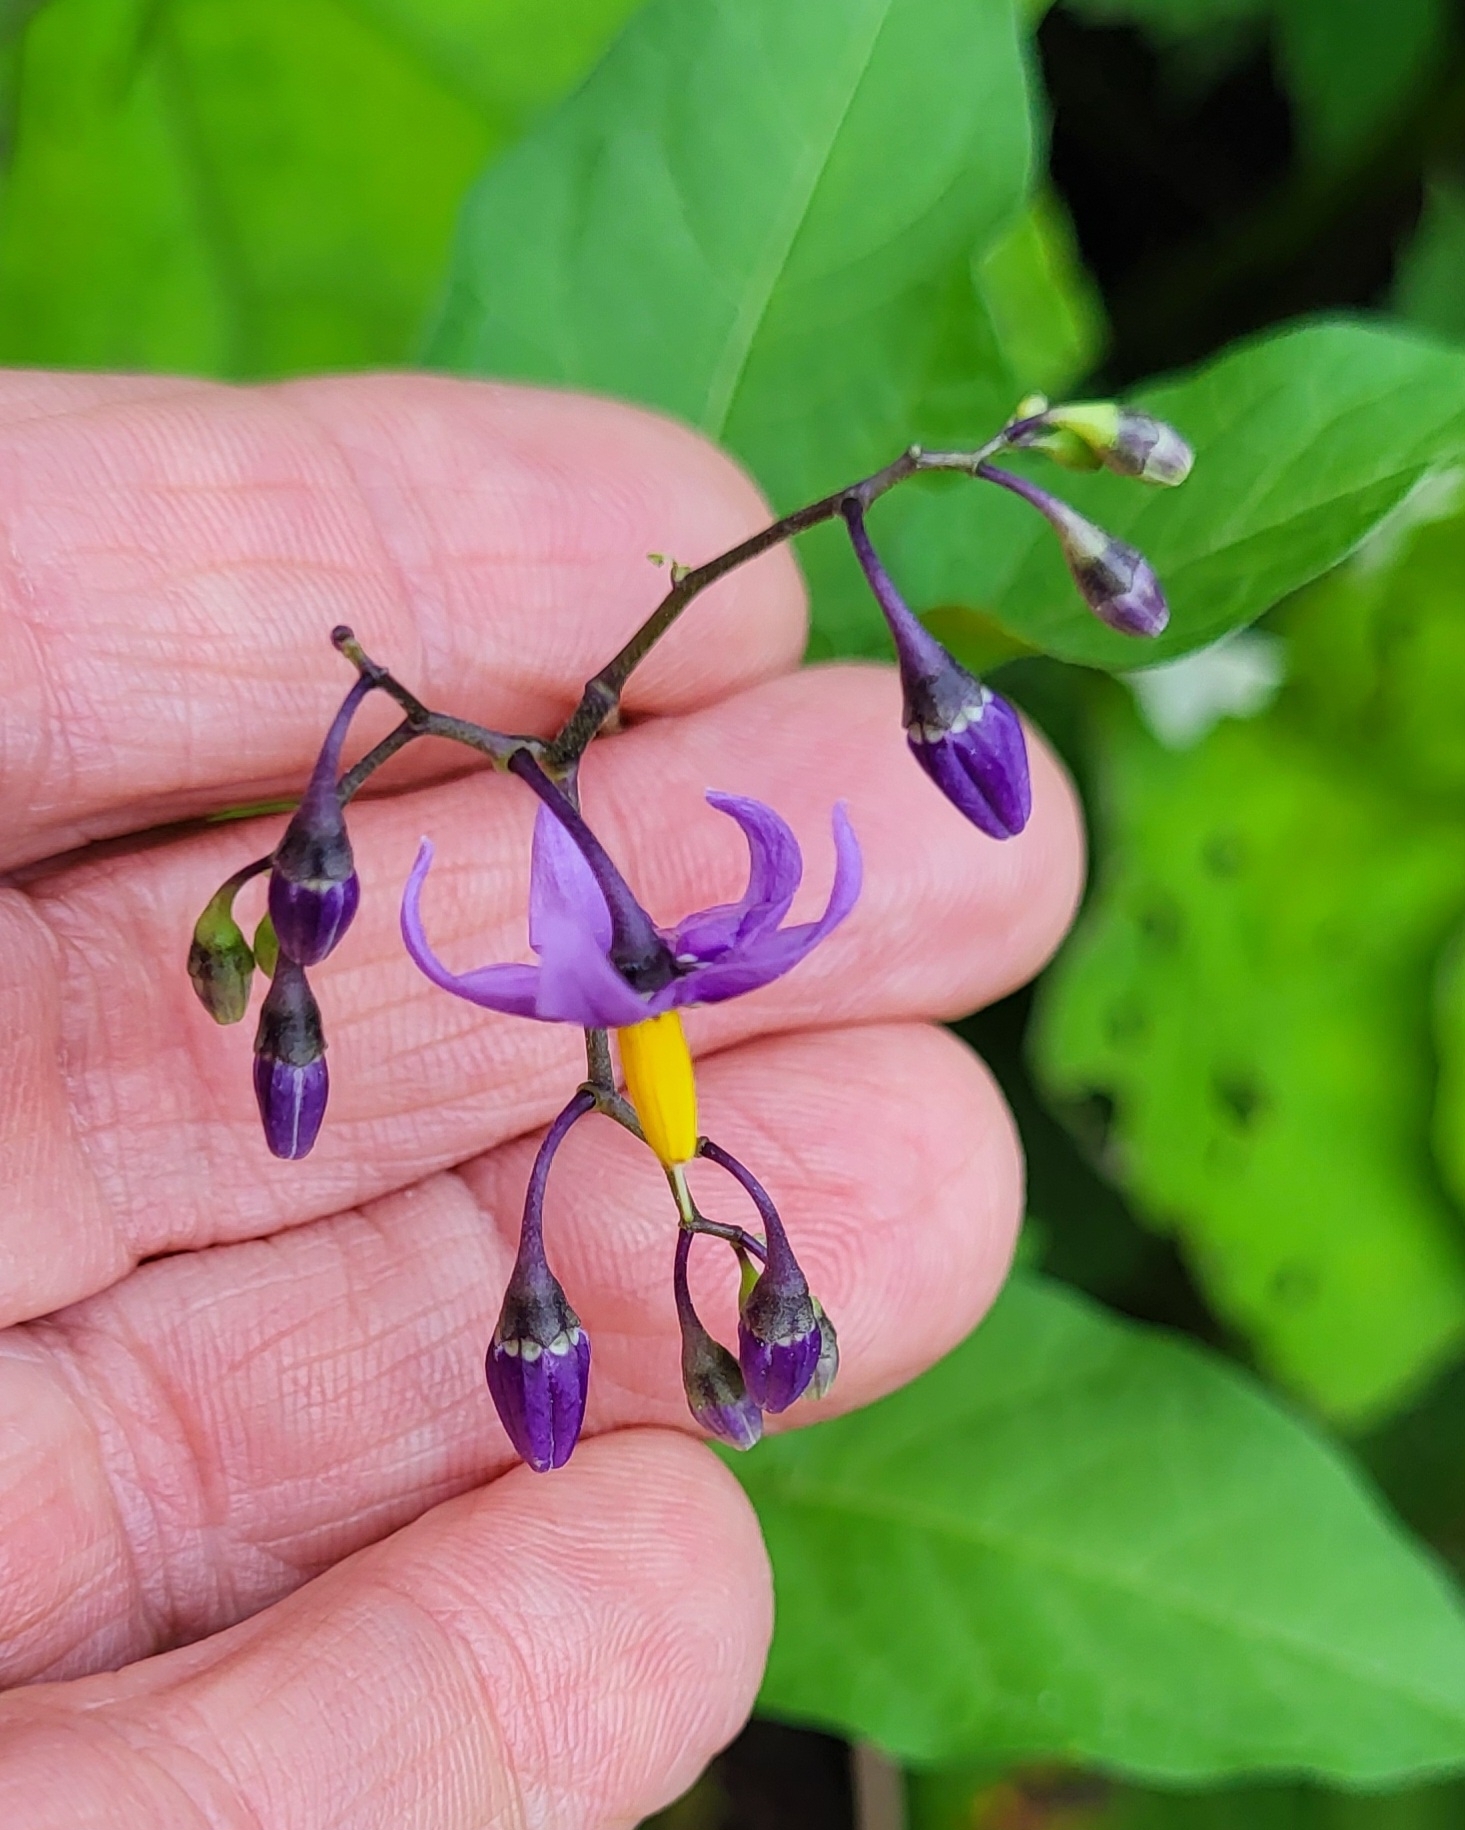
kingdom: Plantae
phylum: Tracheophyta
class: Magnoliopsida
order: Solanales
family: Solanaceae
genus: Solanum
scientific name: Solanum dulcamara
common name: Climbing nightshade
